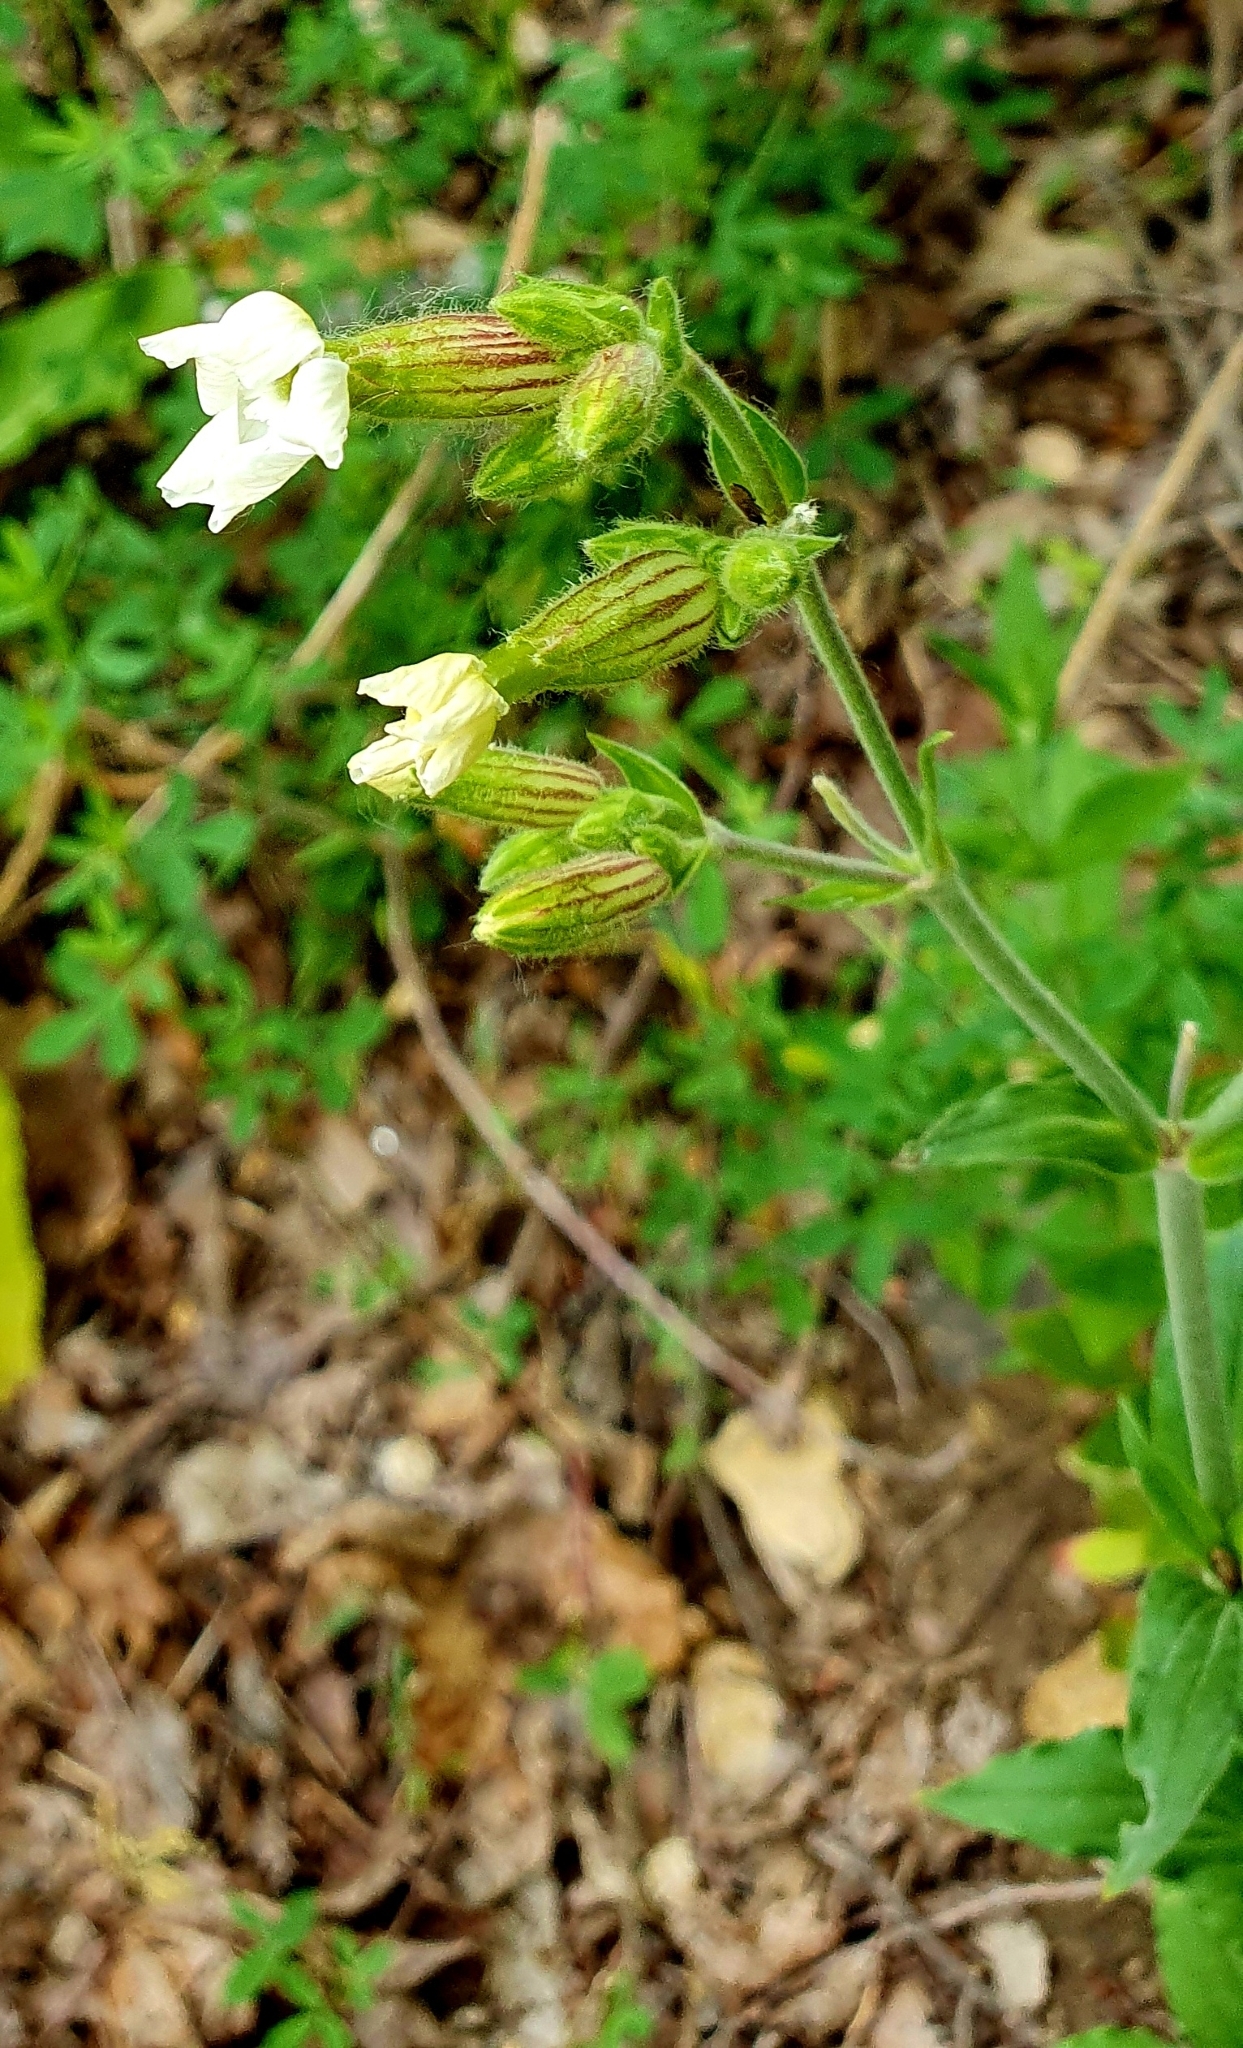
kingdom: Plantae
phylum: Tracheophyta
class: Magnoliopsida
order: Caryophyllales
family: Caryophyllaceae
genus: Silene
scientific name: Silene latifolia
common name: White campion
